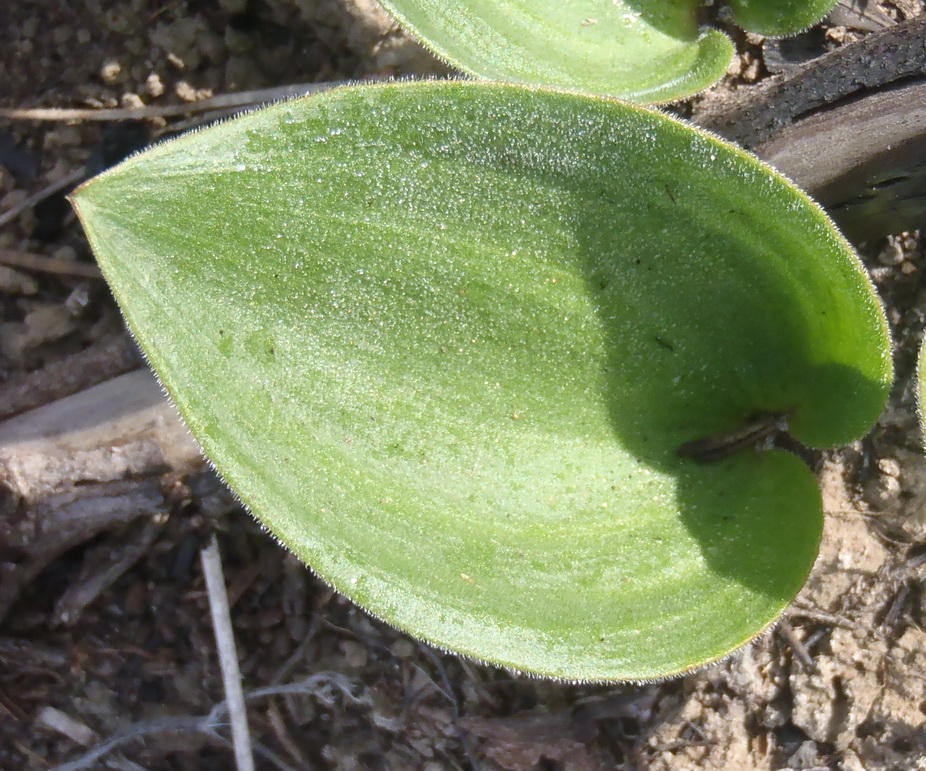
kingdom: Plantae
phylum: Tracheophyta
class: Liliopsida
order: Asparagales
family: Asparagaceae
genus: Eriospermum
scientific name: Eriospermum brevipes
